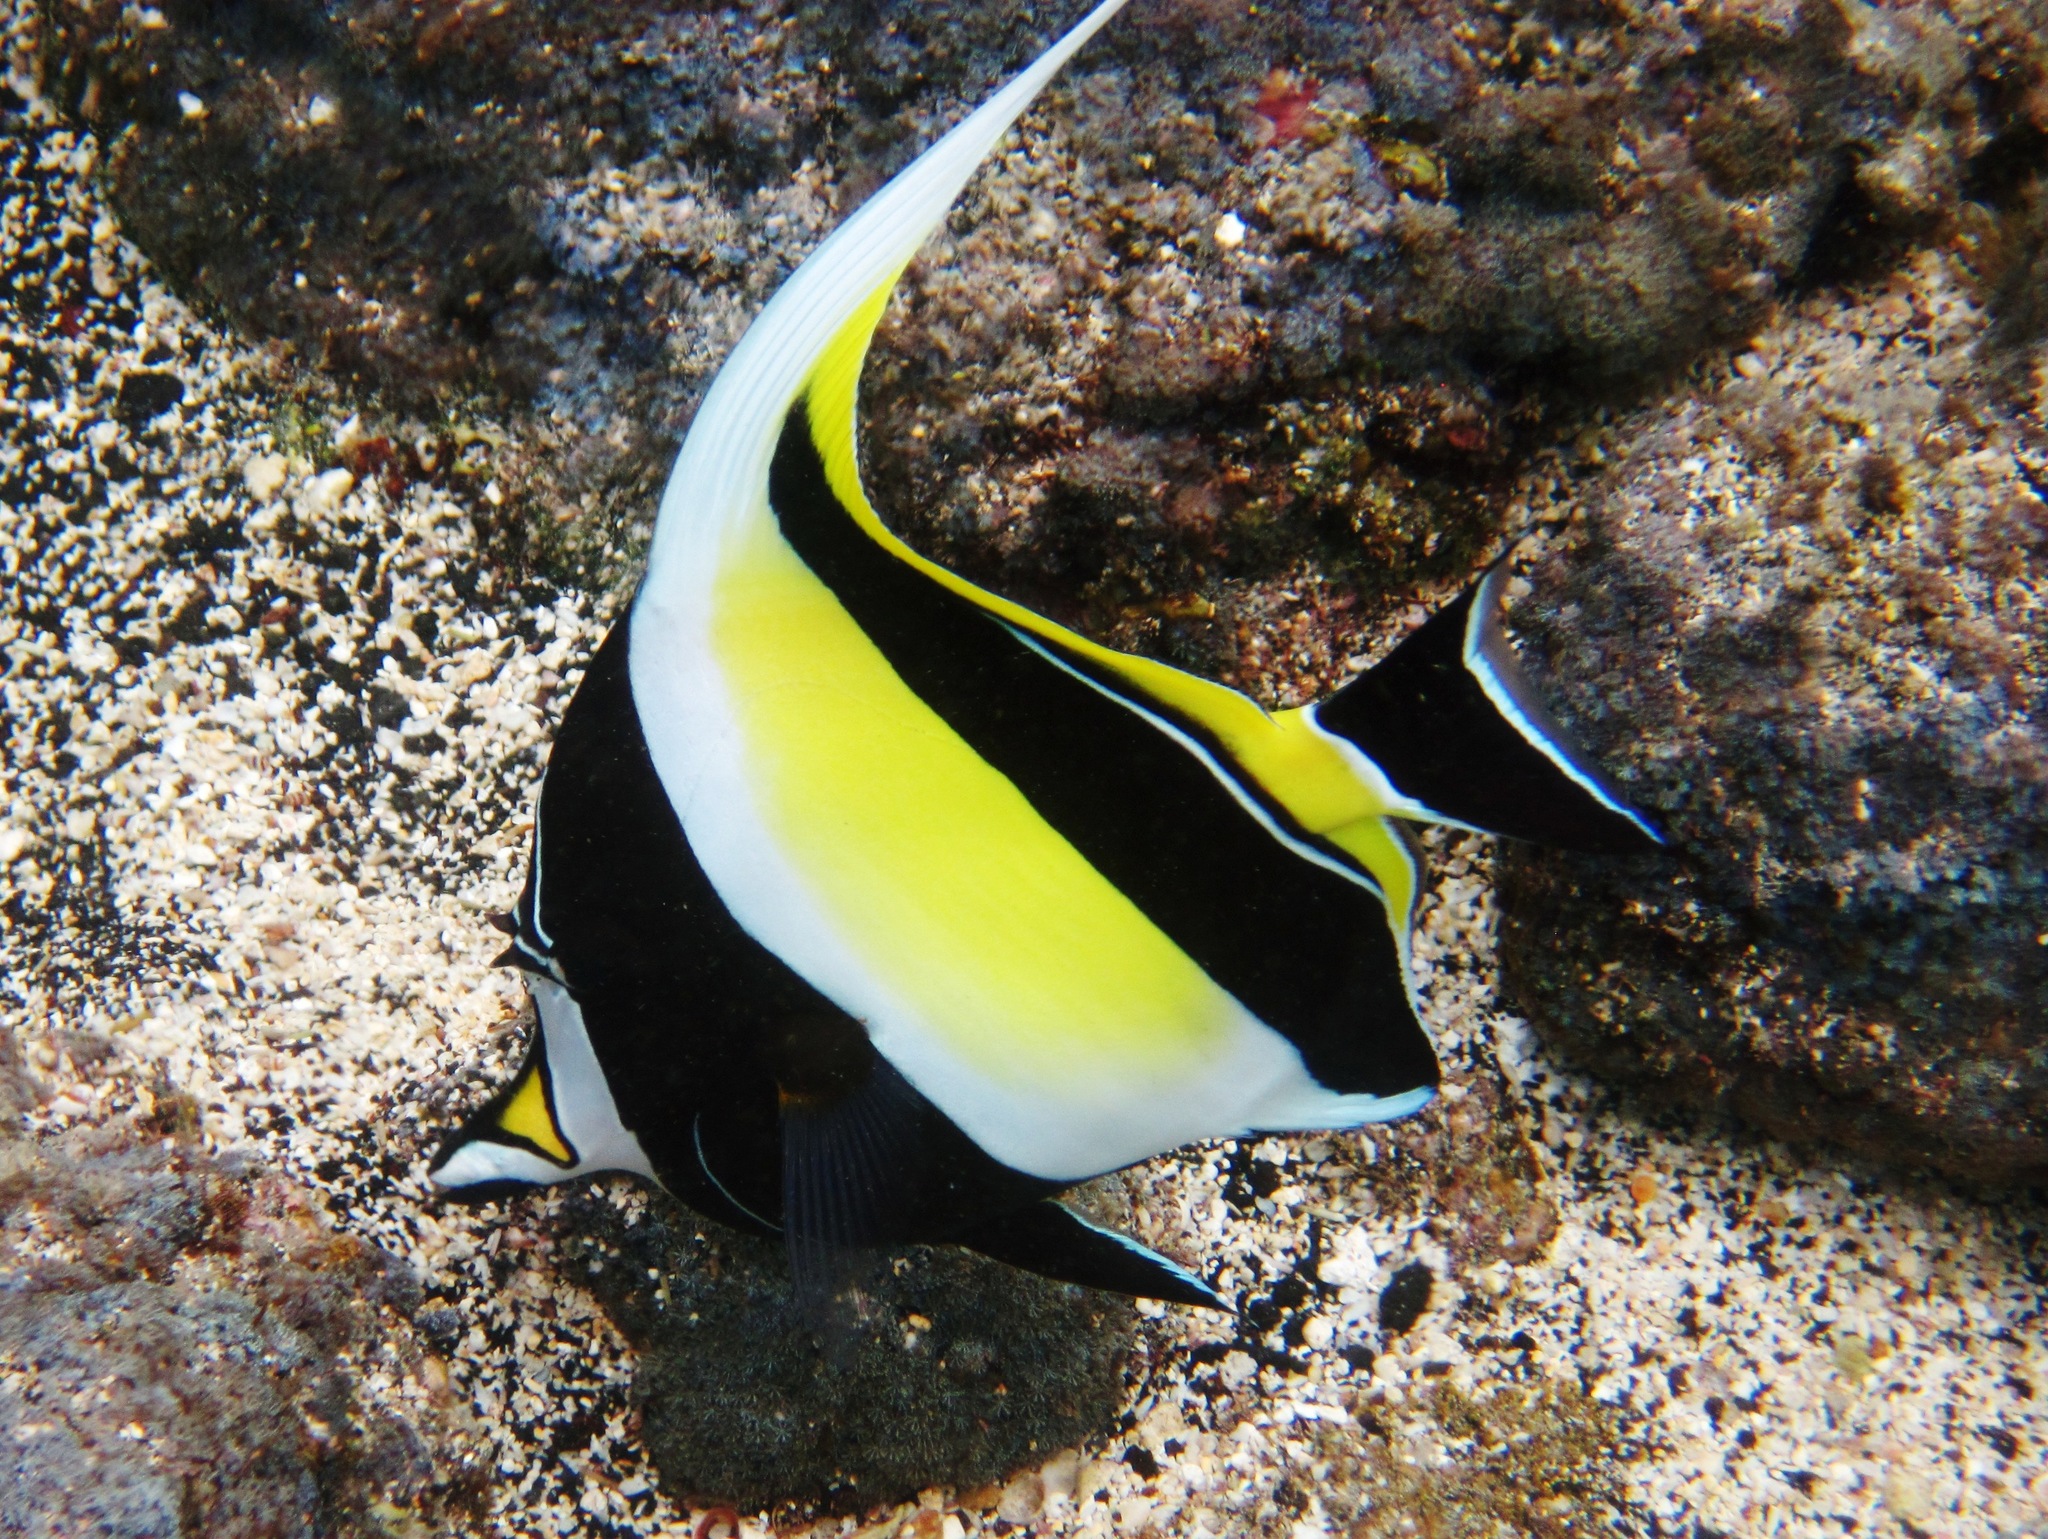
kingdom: Animalia
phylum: Chordata
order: Perciformes
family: Zanclidae
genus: Zanclus
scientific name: Zanclus cornutus
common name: Moorish idol
